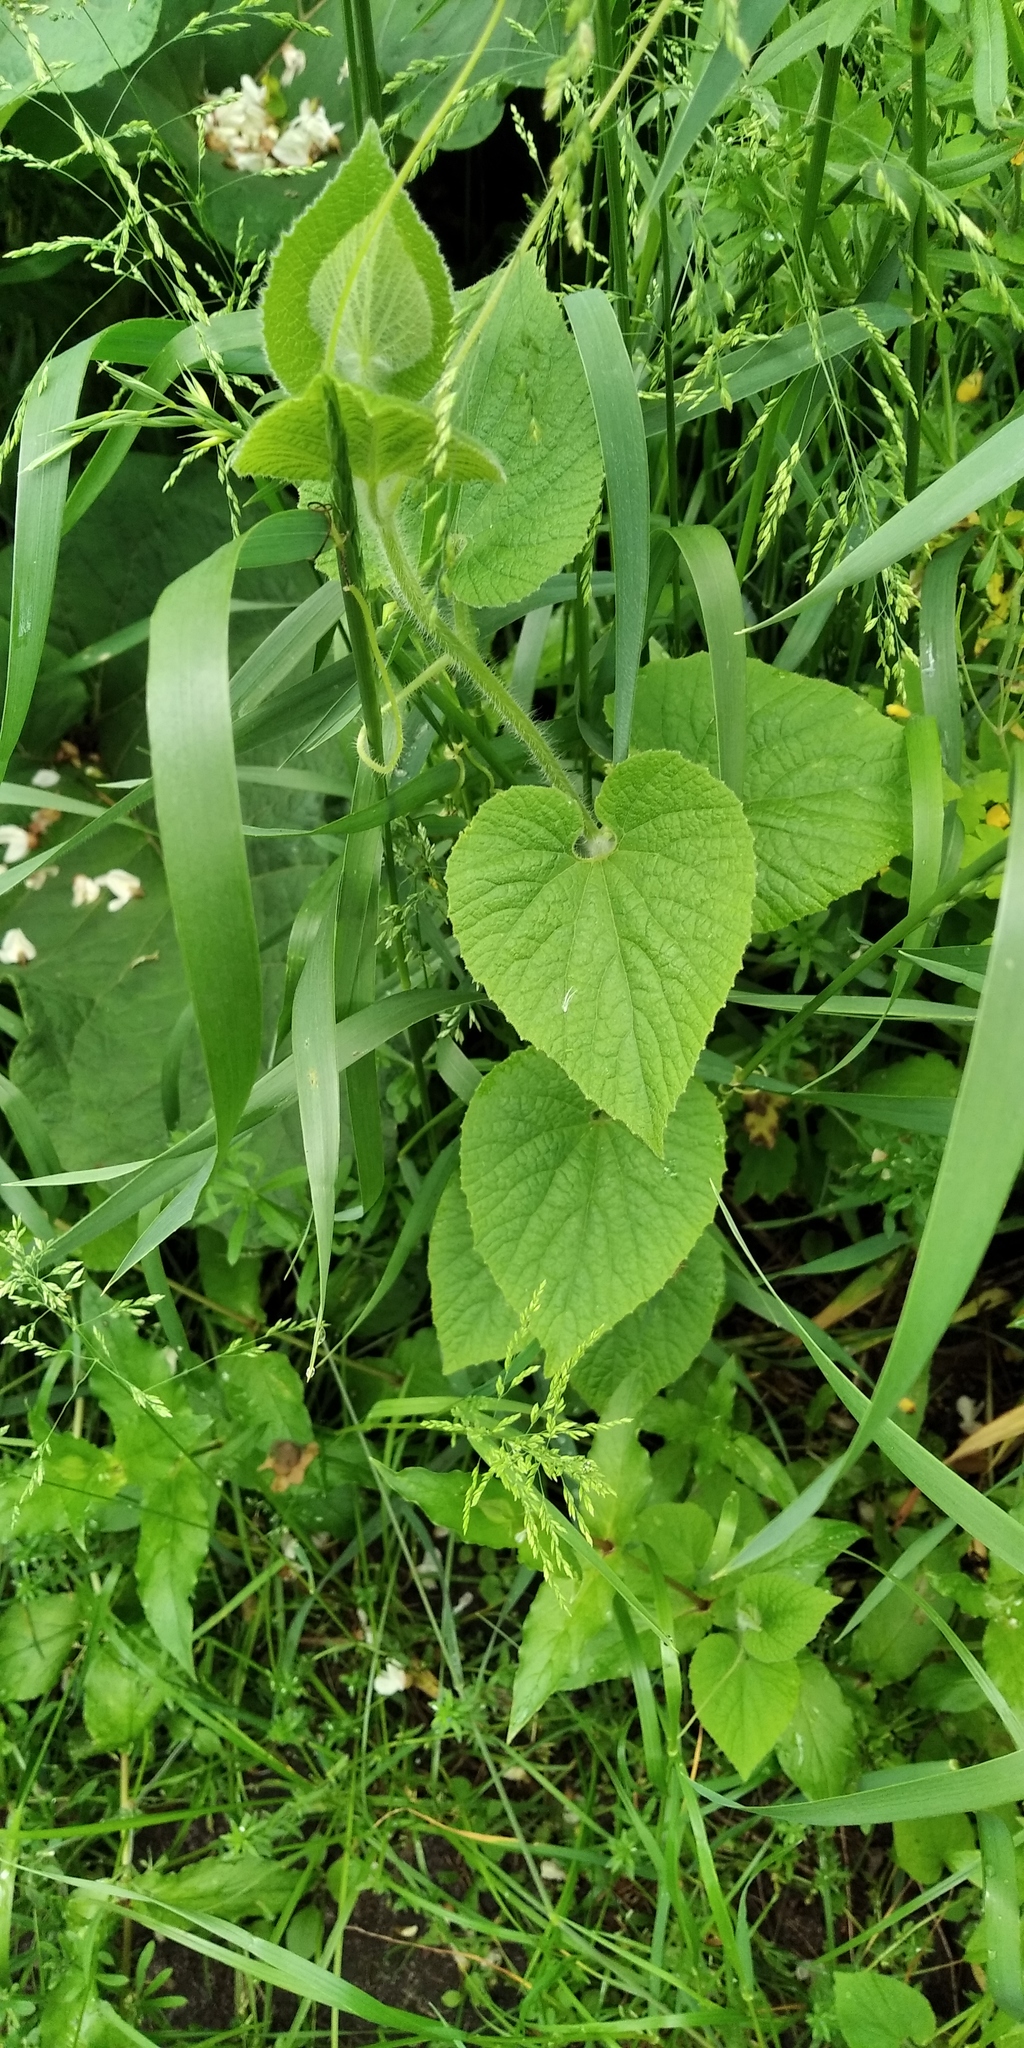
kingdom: Plantae
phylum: Tracheophyta
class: Magnoliopsida
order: Cucurbitales
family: Cucurbitaceae
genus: Thladiantha
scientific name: Thladiantha dubia
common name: Manchu tubergourd
